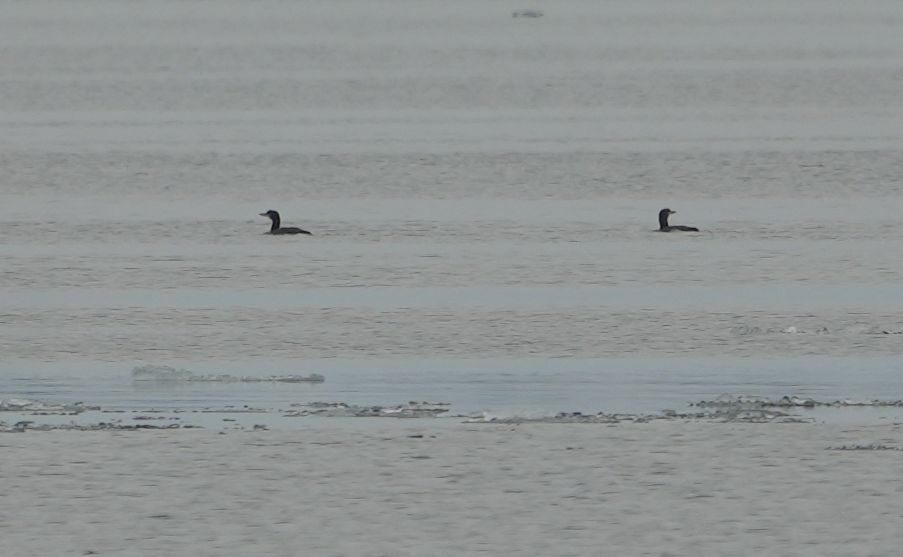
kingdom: Animalia
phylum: Chordata
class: Aves
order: Gaviiformes
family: Gaviidae
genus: Gavia
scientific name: Gavia immer
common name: Common loon
